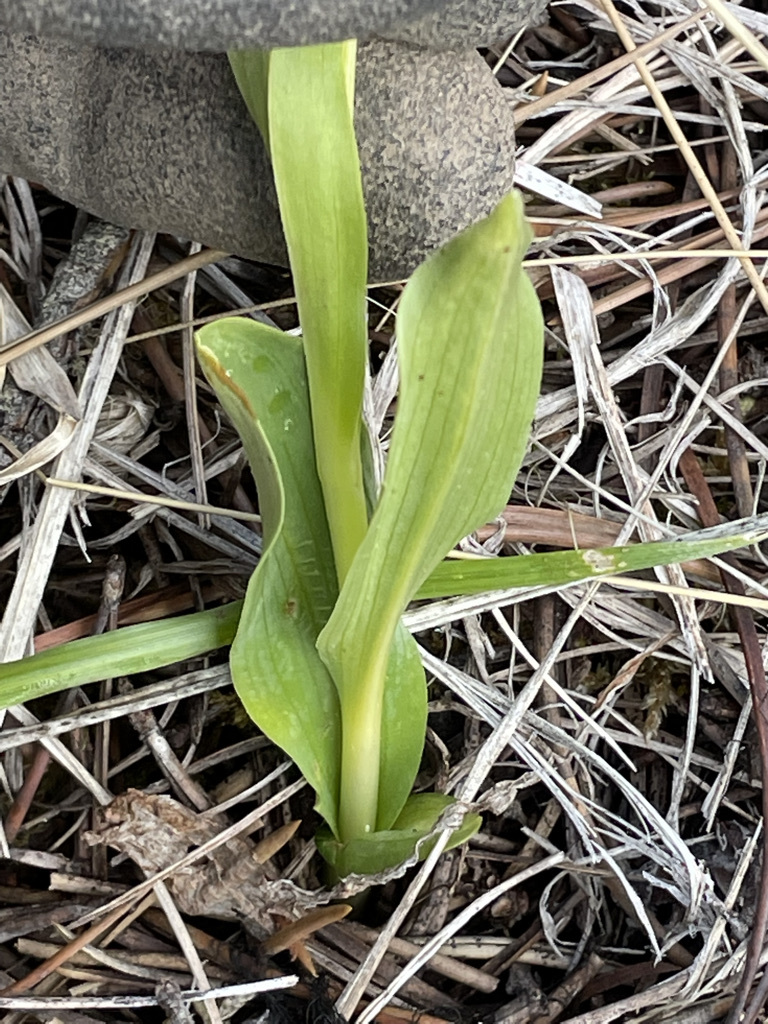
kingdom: Plantae
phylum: Tracheophyta
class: Liliopsida
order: Asparagales
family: Orchidaceae
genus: Dactylorhiza
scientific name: Dactylorhiza viridis
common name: Longbract frog orchid
